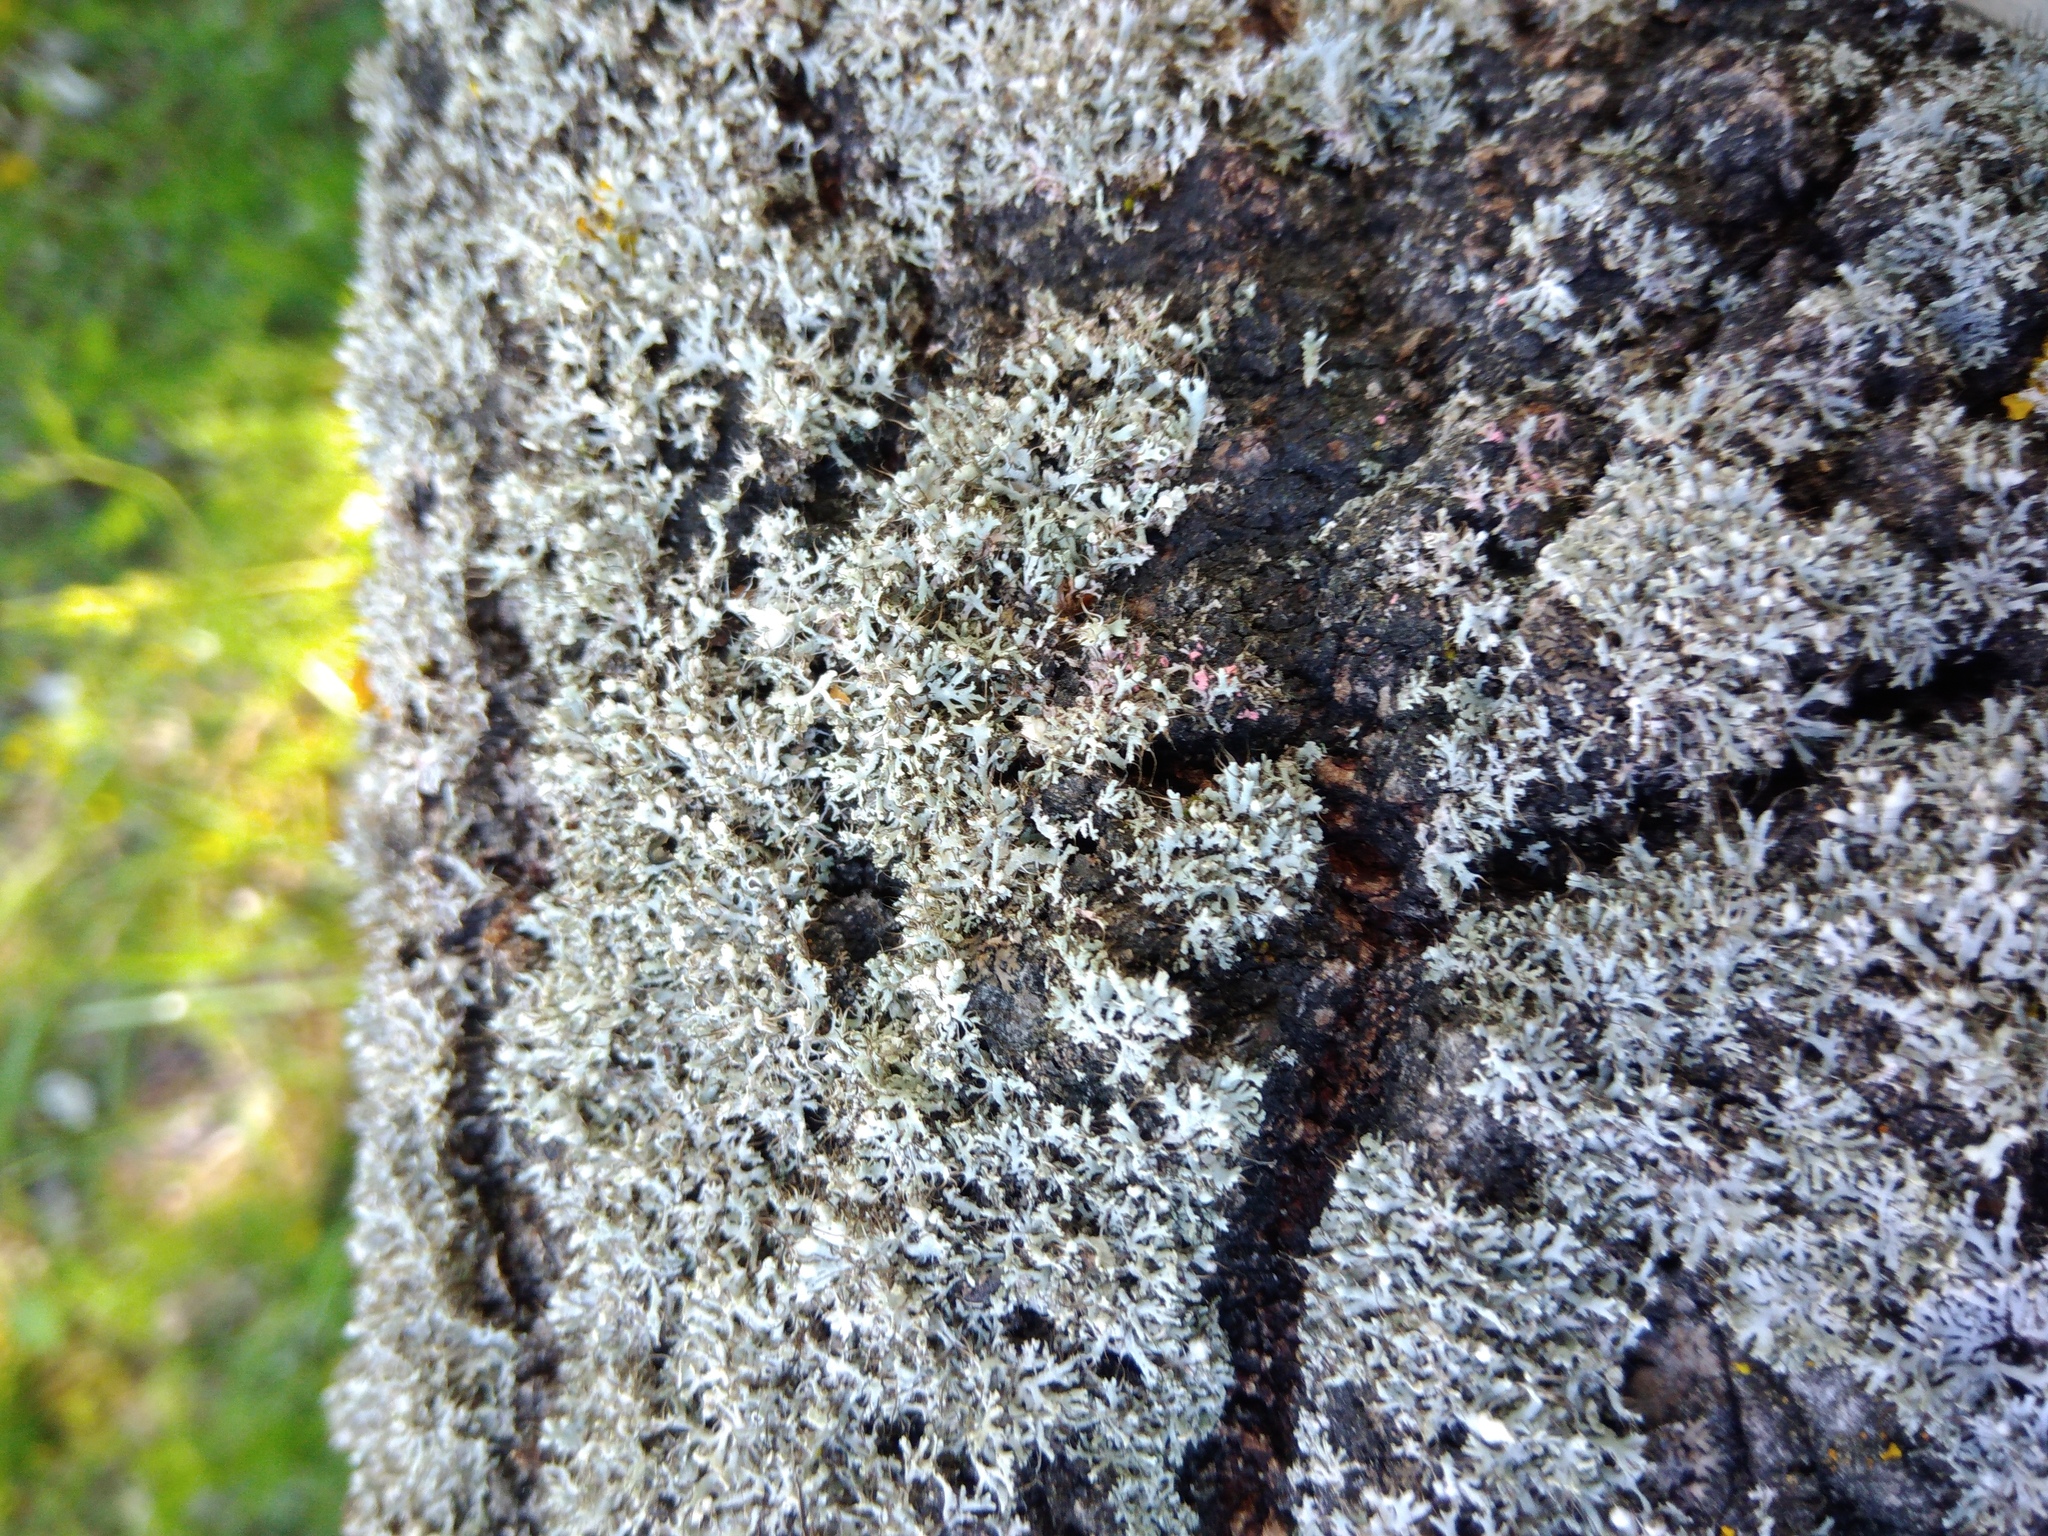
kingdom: Fungi
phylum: Ascomycota
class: Sordariomycetes
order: Hypocreales
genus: Illosporiopsis
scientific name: Illosporiopsis christiansenii
